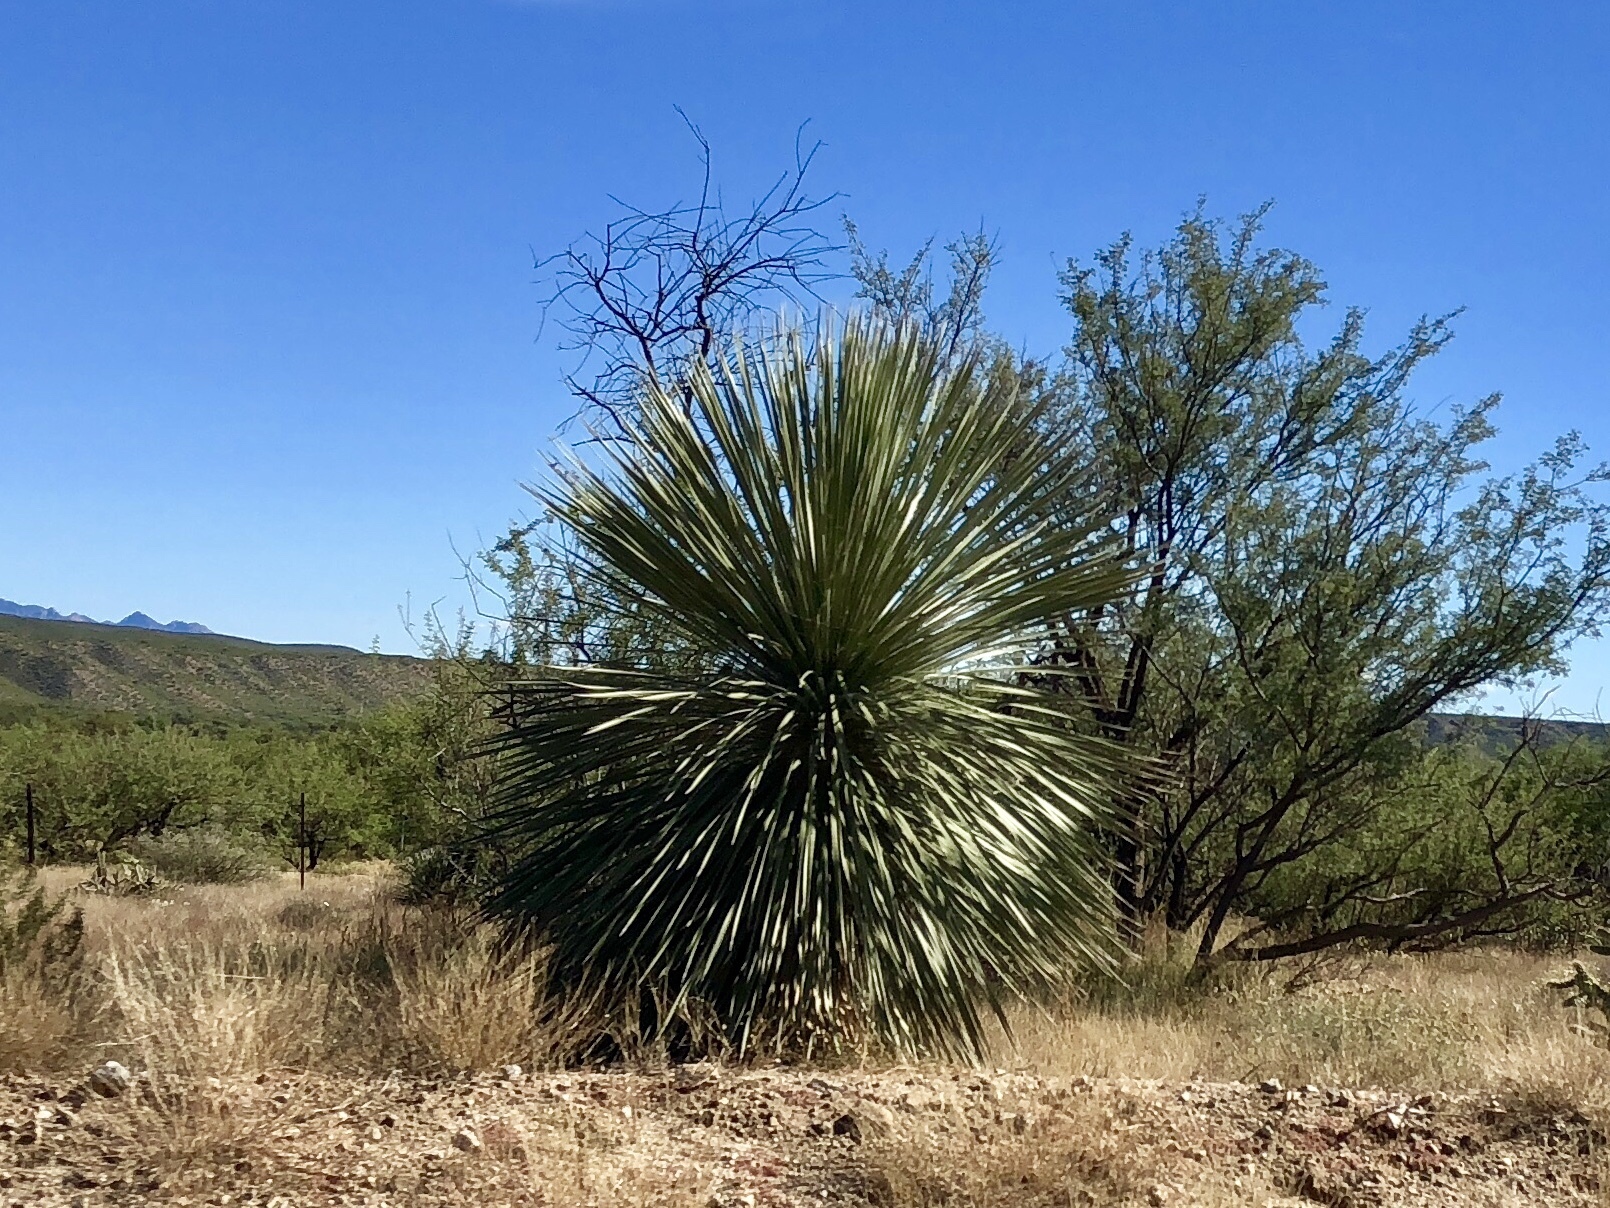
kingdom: Plantae
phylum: Tracheophyta
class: Liliopsida
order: Asparagales
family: Asparagaceae
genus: Yucca
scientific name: Yucca elata
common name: Palmella
